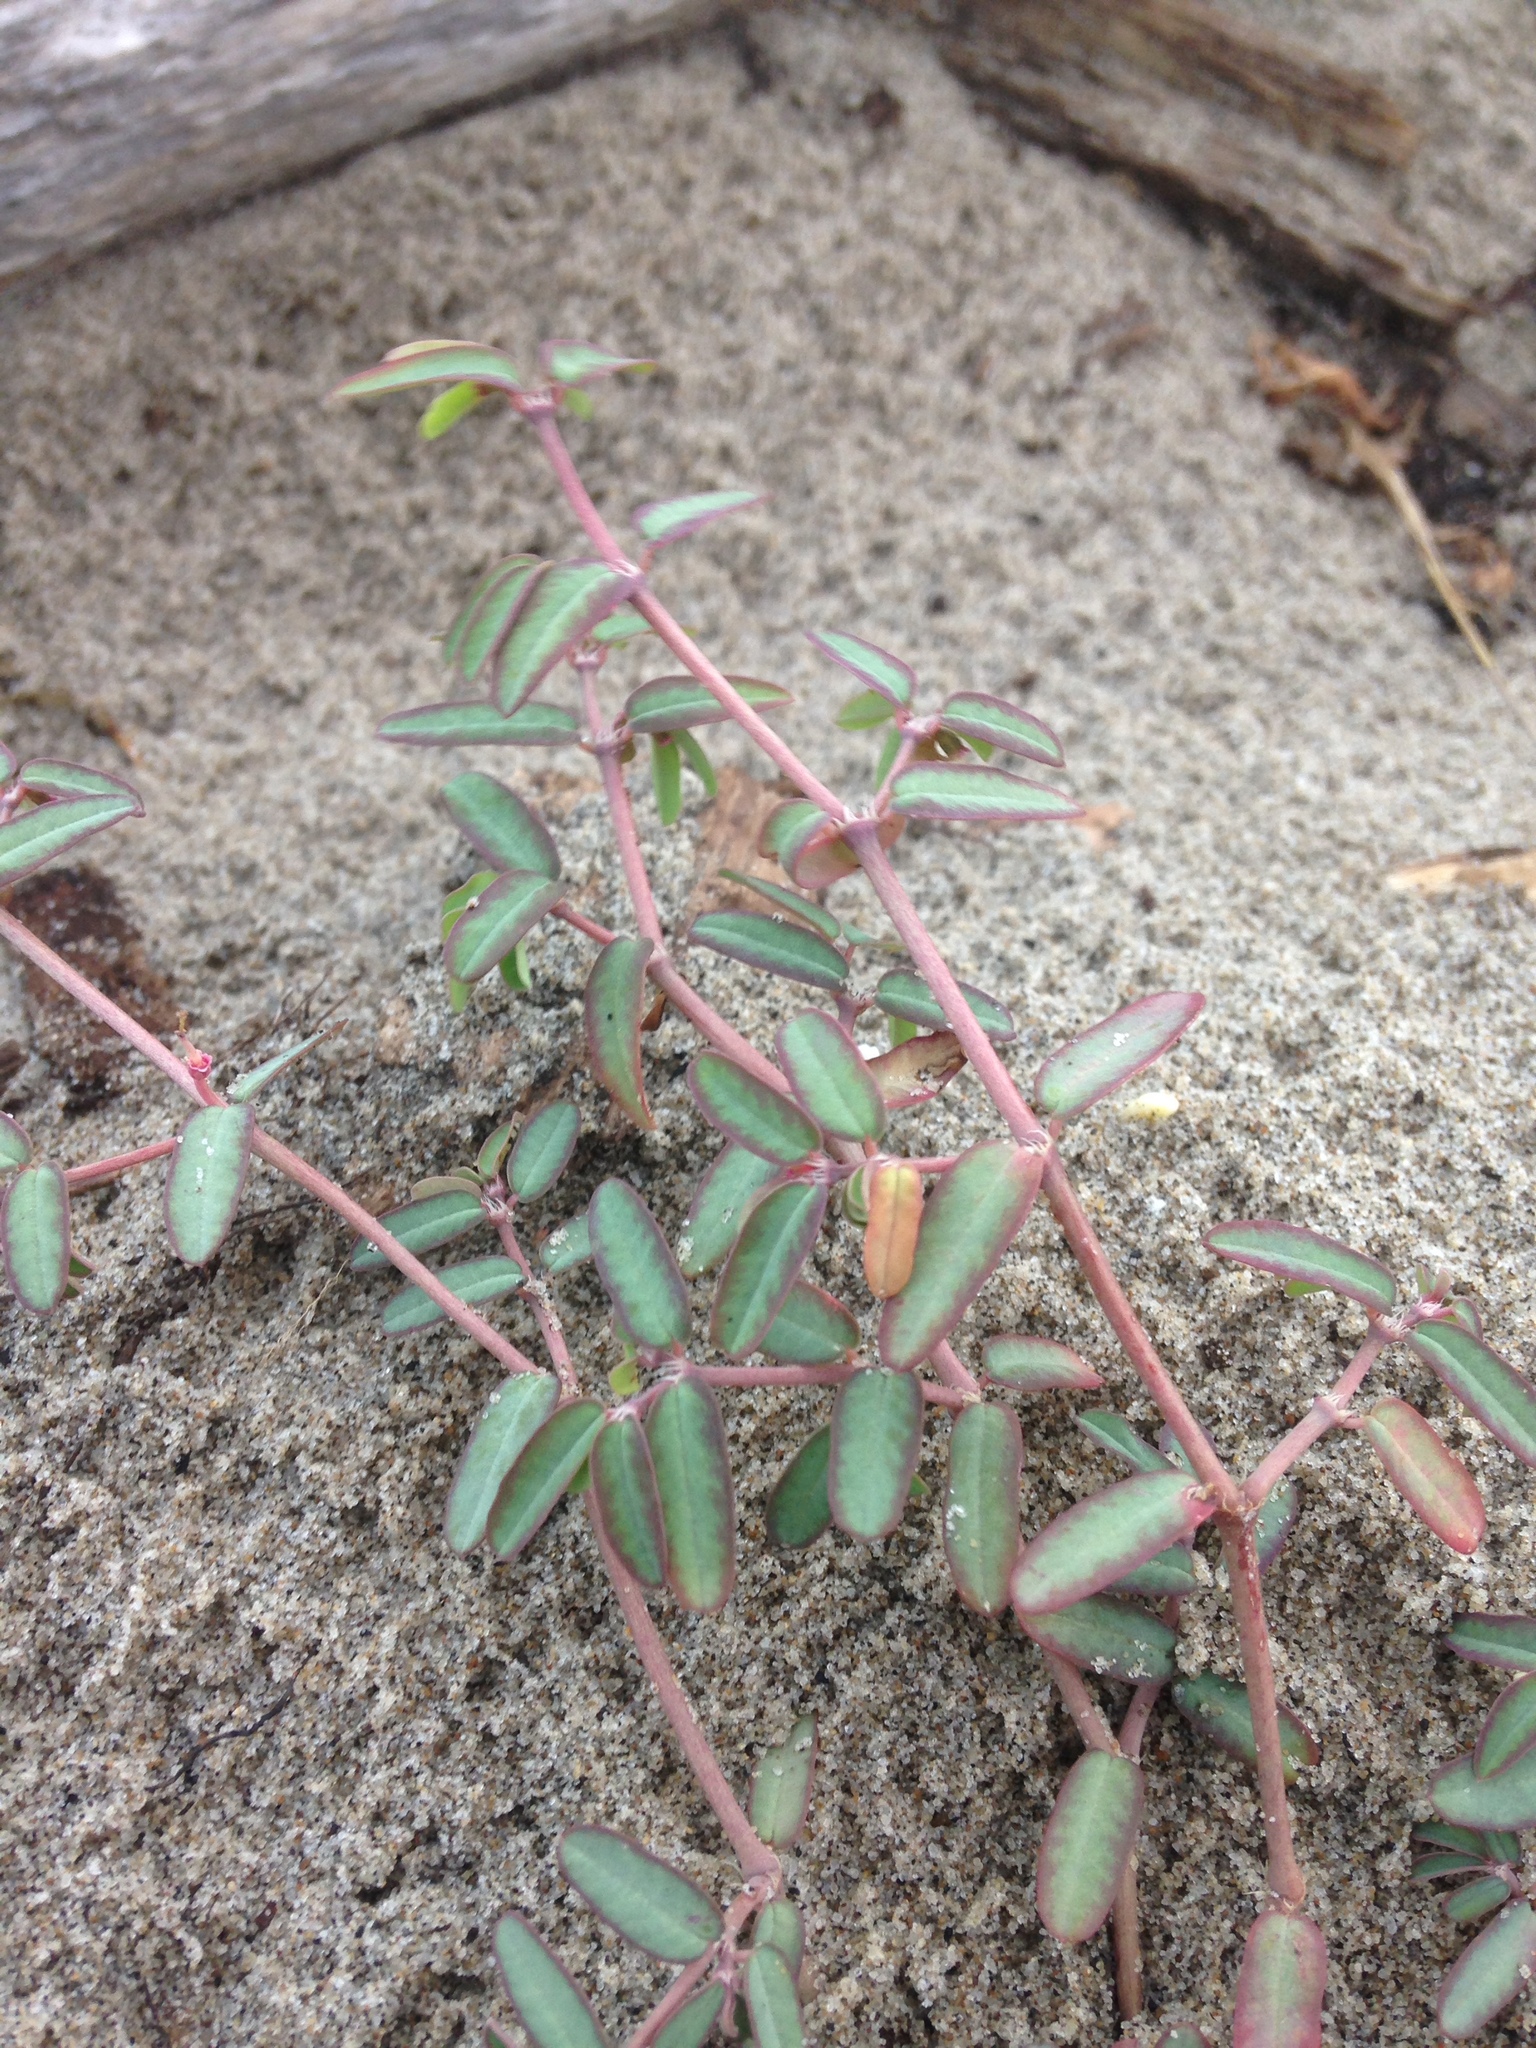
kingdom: Plantae
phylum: Tracheophyta
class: Magnoliopsida
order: Malpighiales
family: Euphorbiaceae
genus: Euphorbia
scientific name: Euphorbia bombensis
